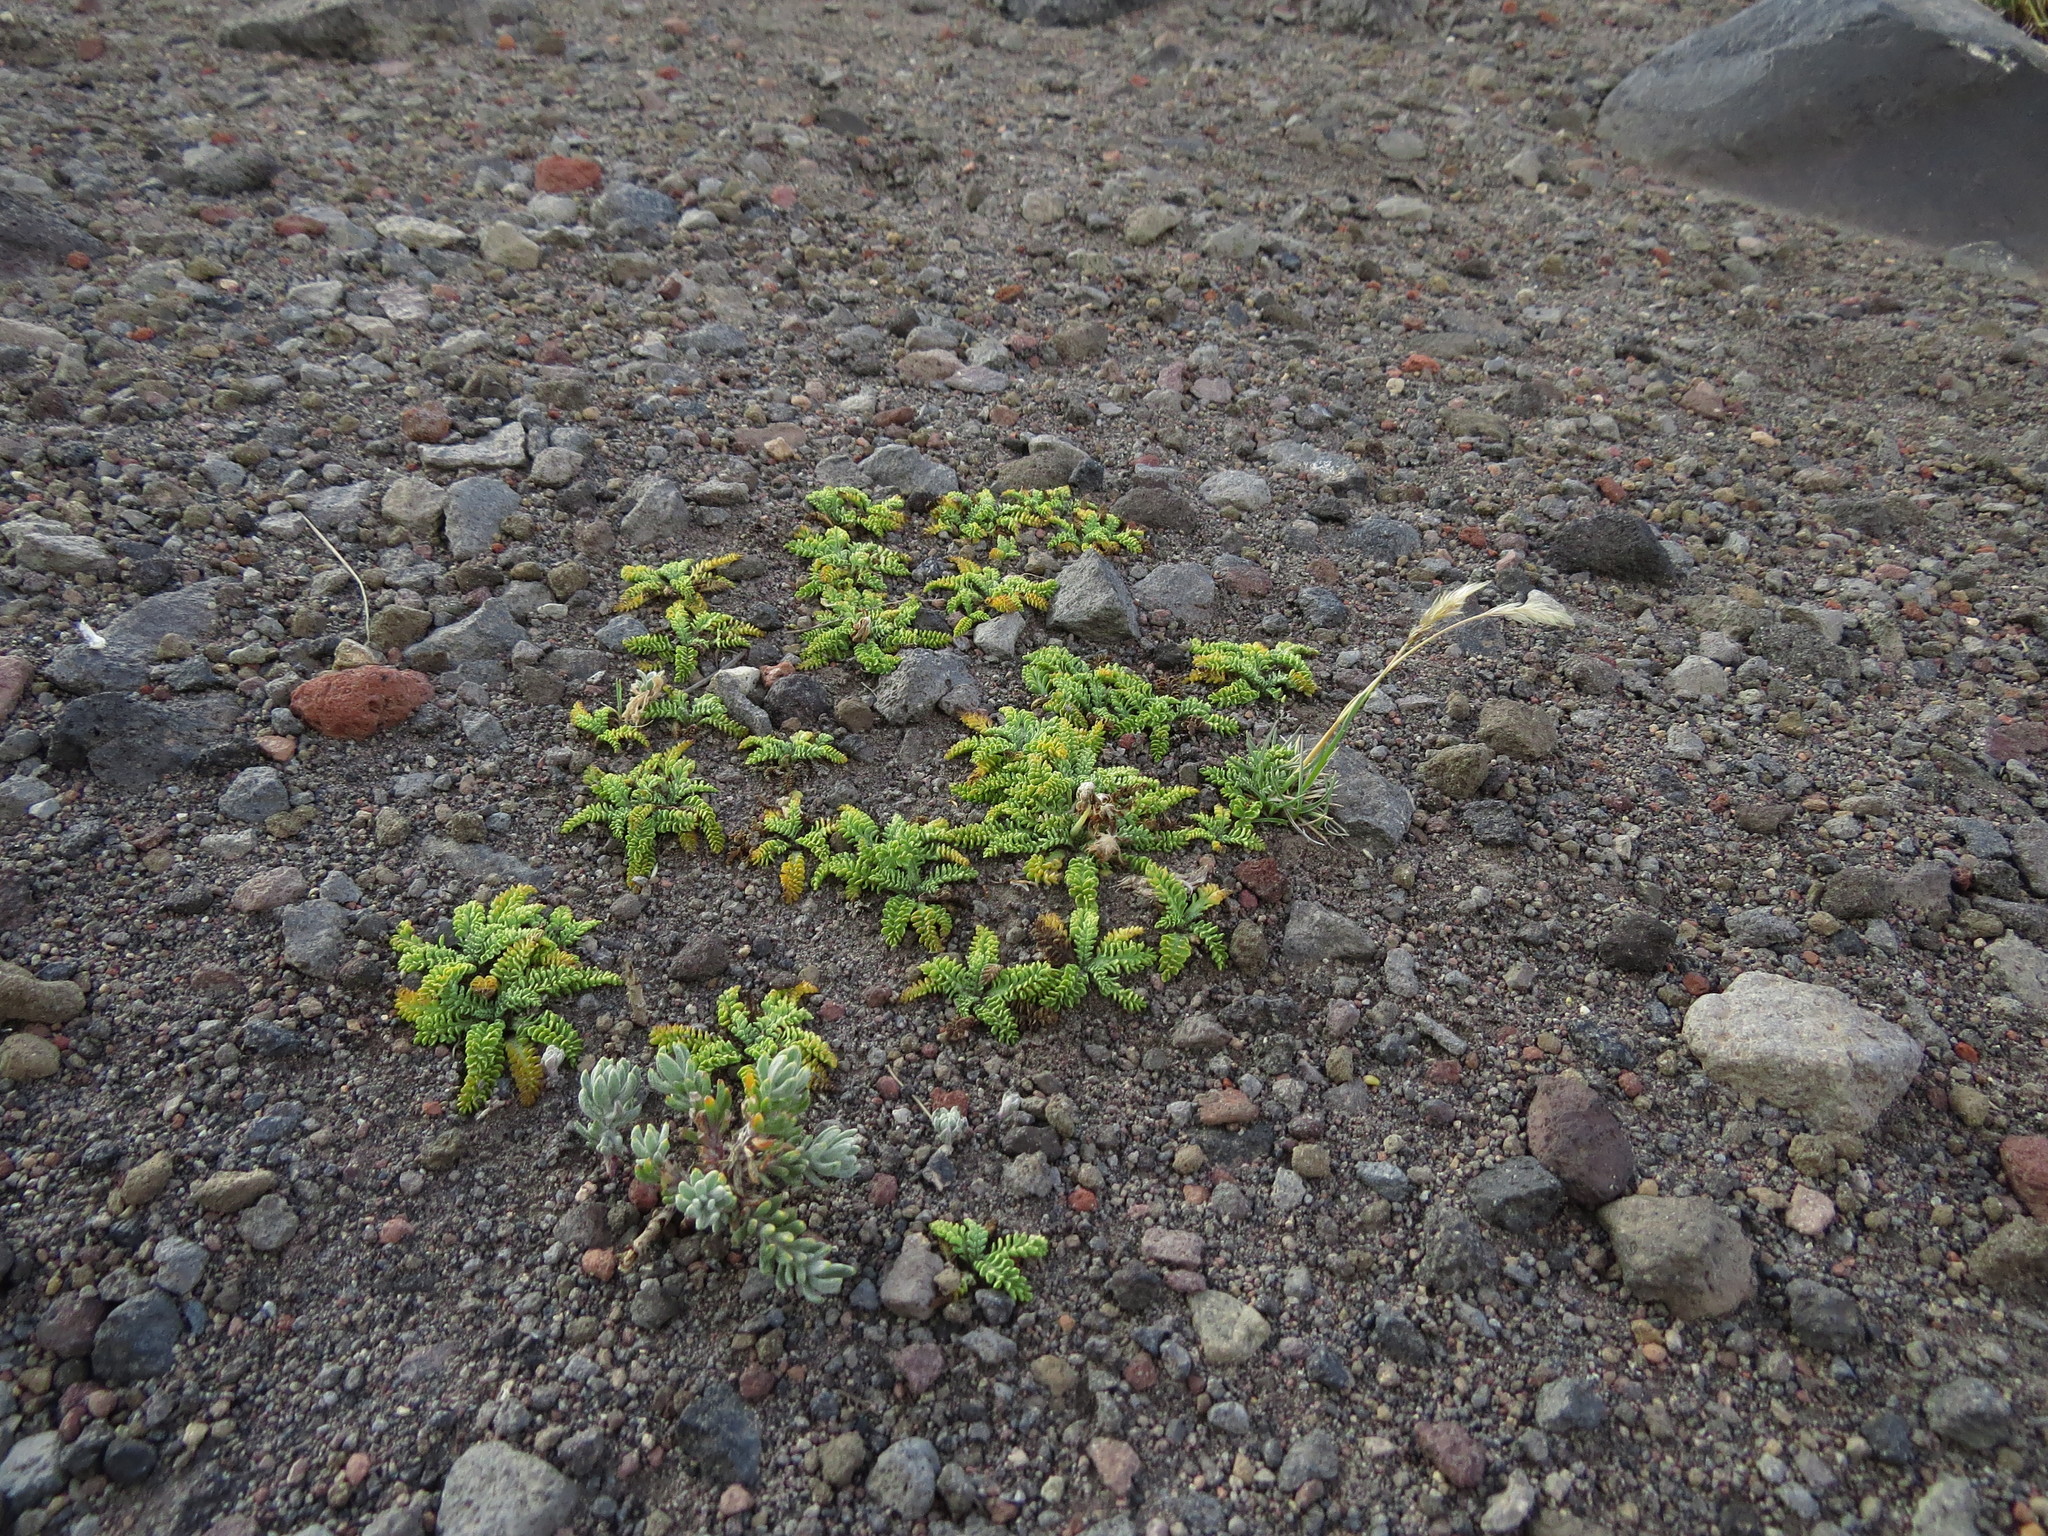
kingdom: Plantae
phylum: Tracheophyta
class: Magnoliopsida
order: Asterales
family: Asteraceae
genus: Leucheria
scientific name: Leucheria scrobiculata
